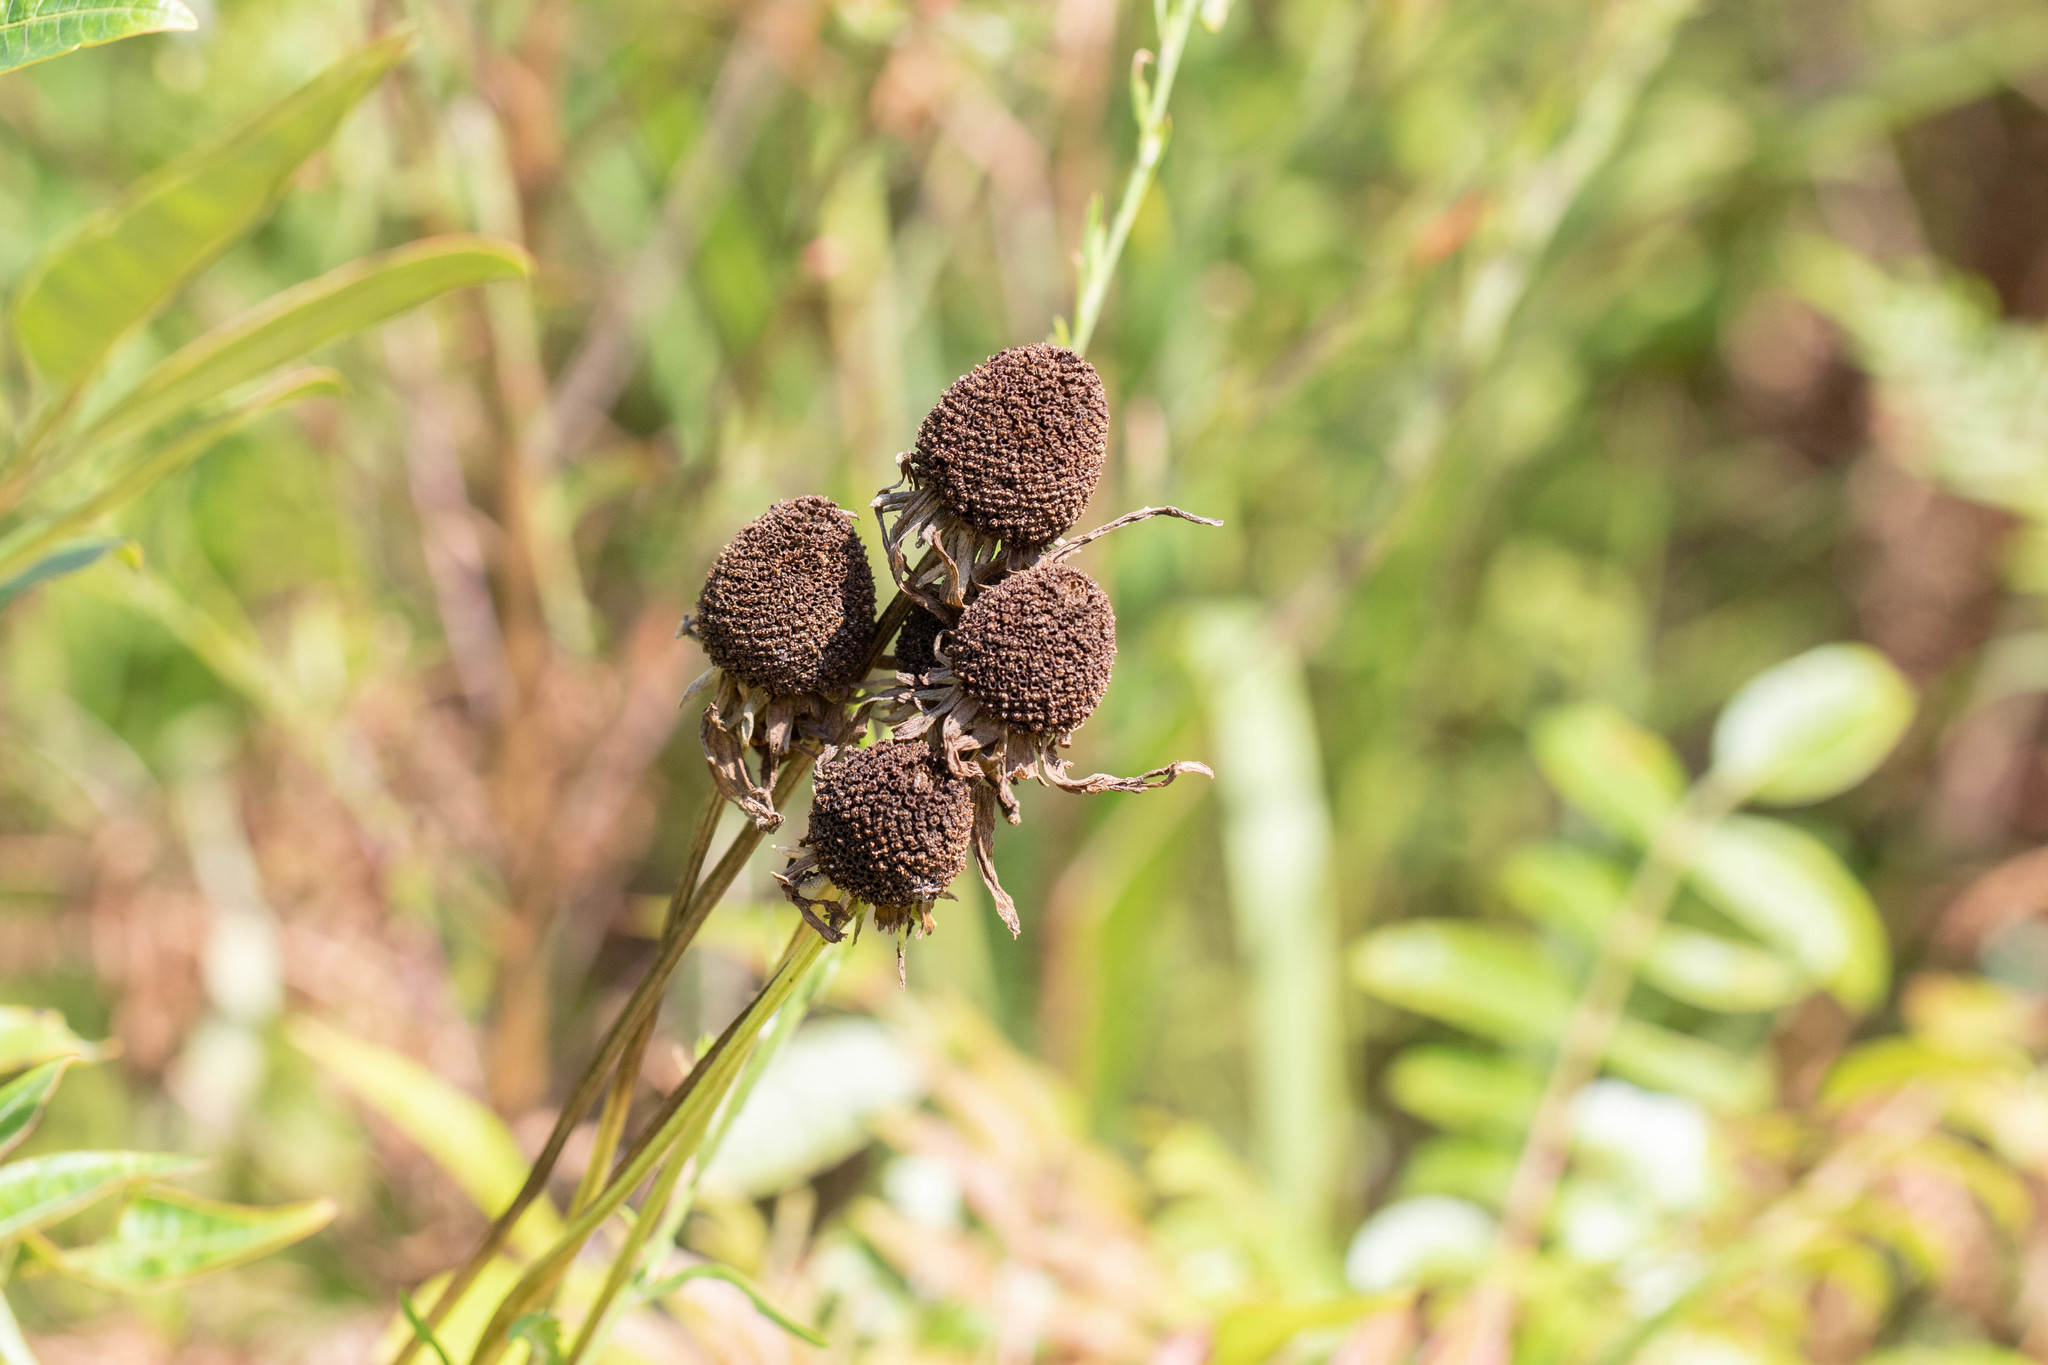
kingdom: Plantae
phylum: Tracheophyta
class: Magnoliopsida
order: Asterales
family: Asteraceae
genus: Rudbeckia
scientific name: Rudbeckia grandiflora
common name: Large-flowered coneflower
